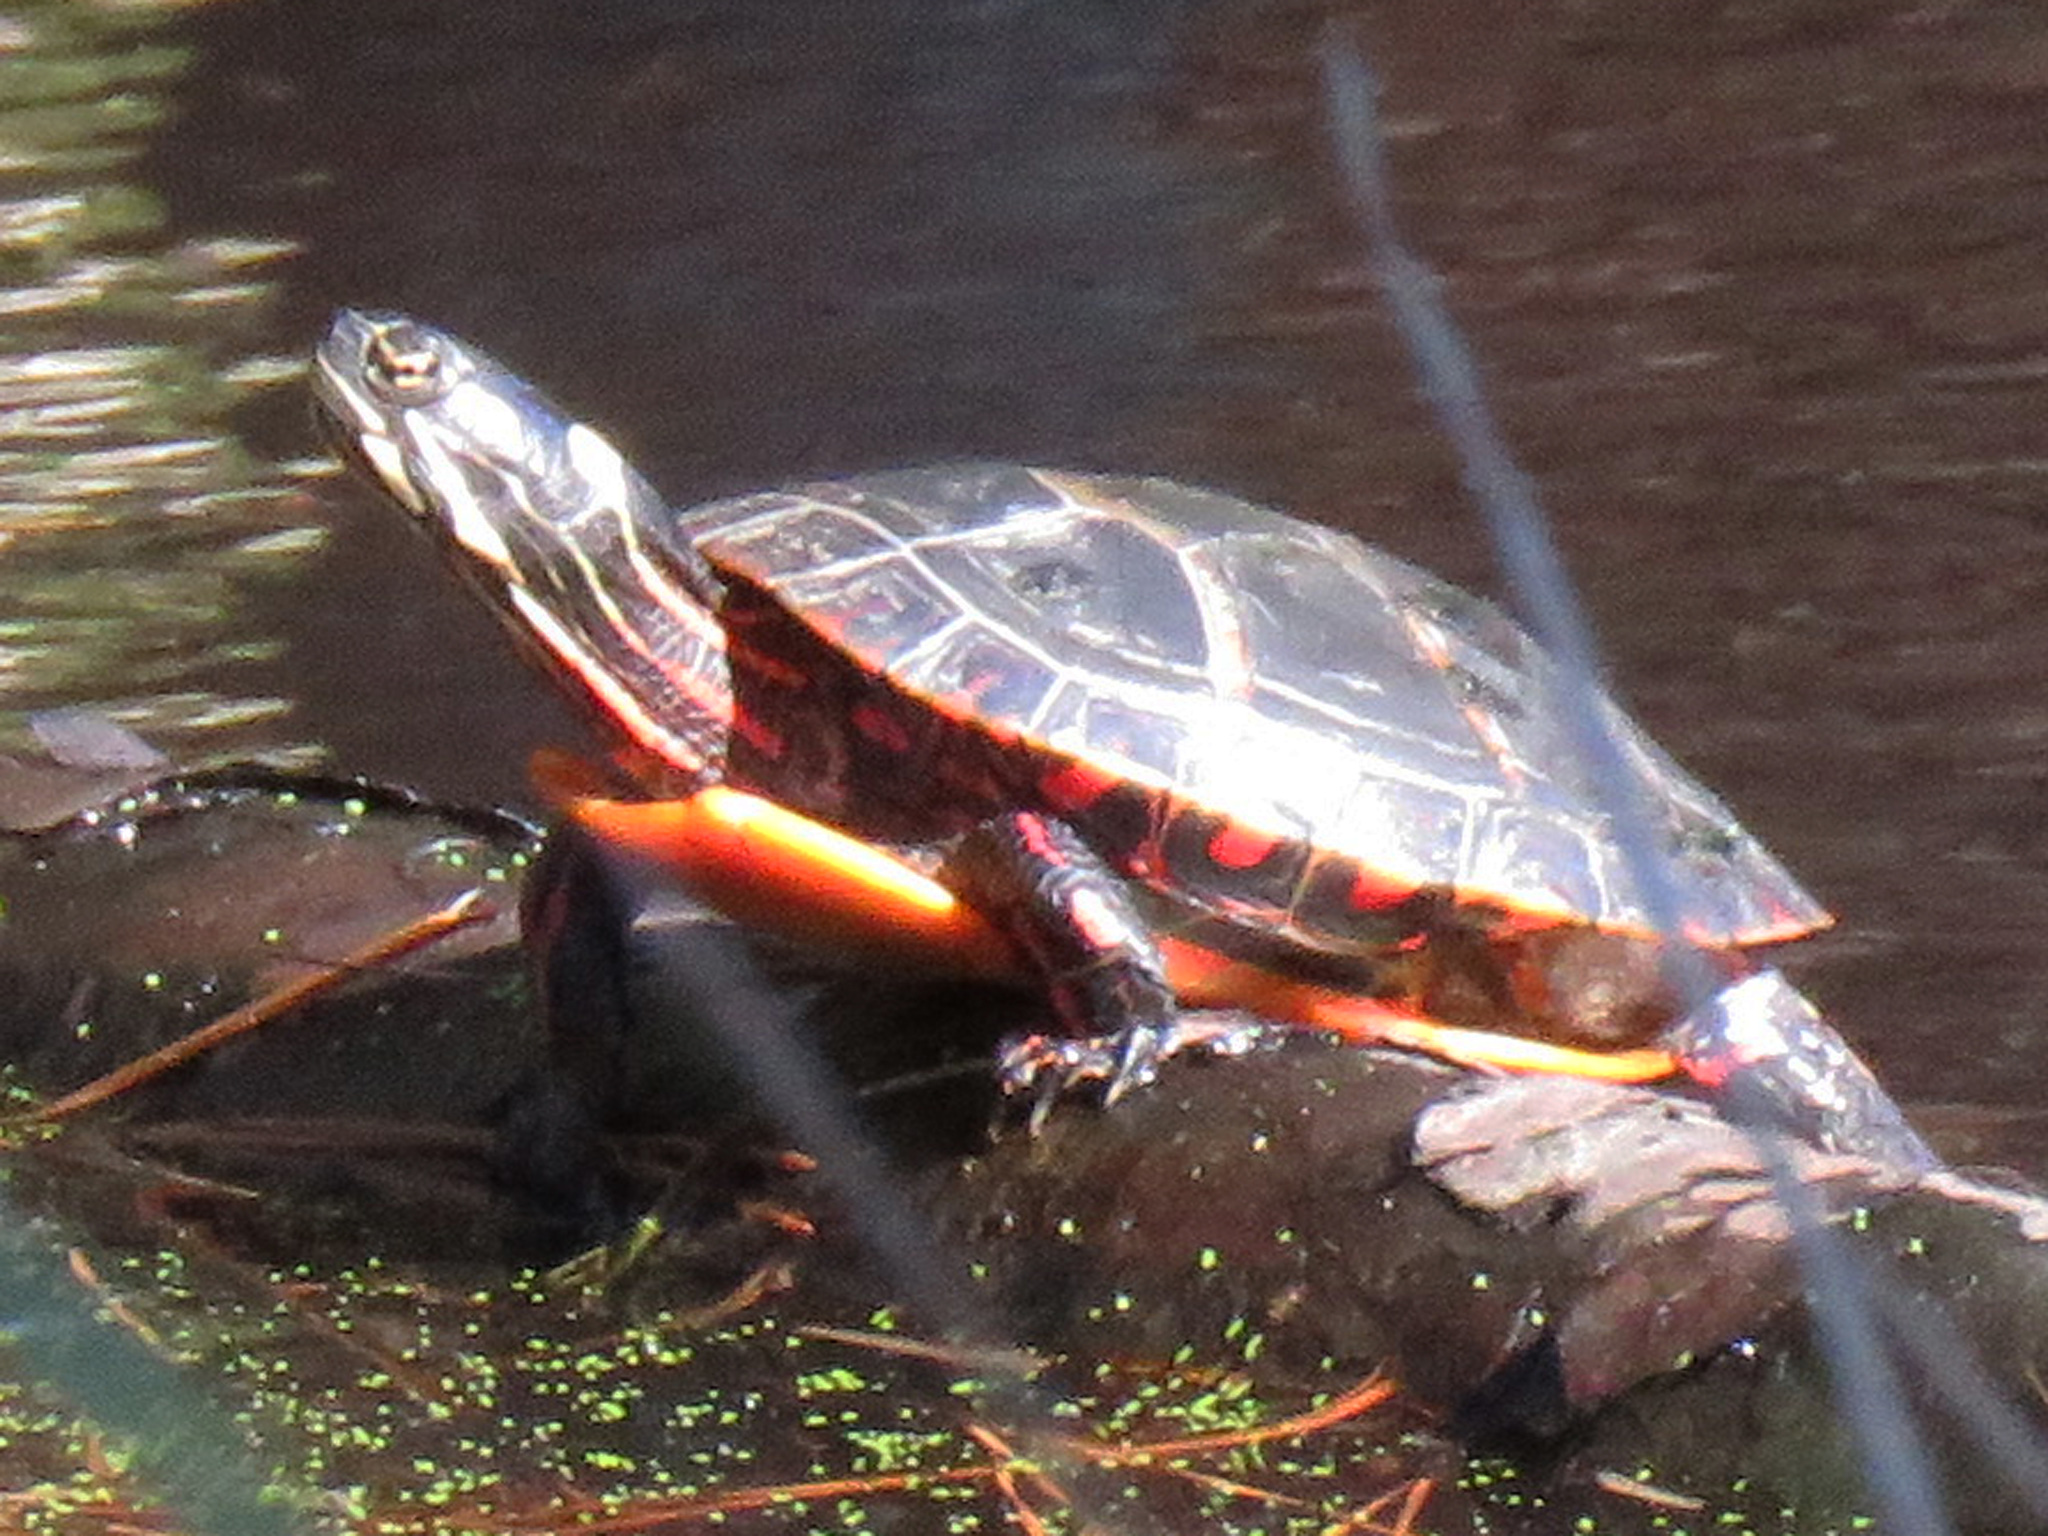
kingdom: Animalia
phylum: Chordata
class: Testudines
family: Emydidae
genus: Chrysemys
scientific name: Chrysemys picta
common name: Painted turtle
